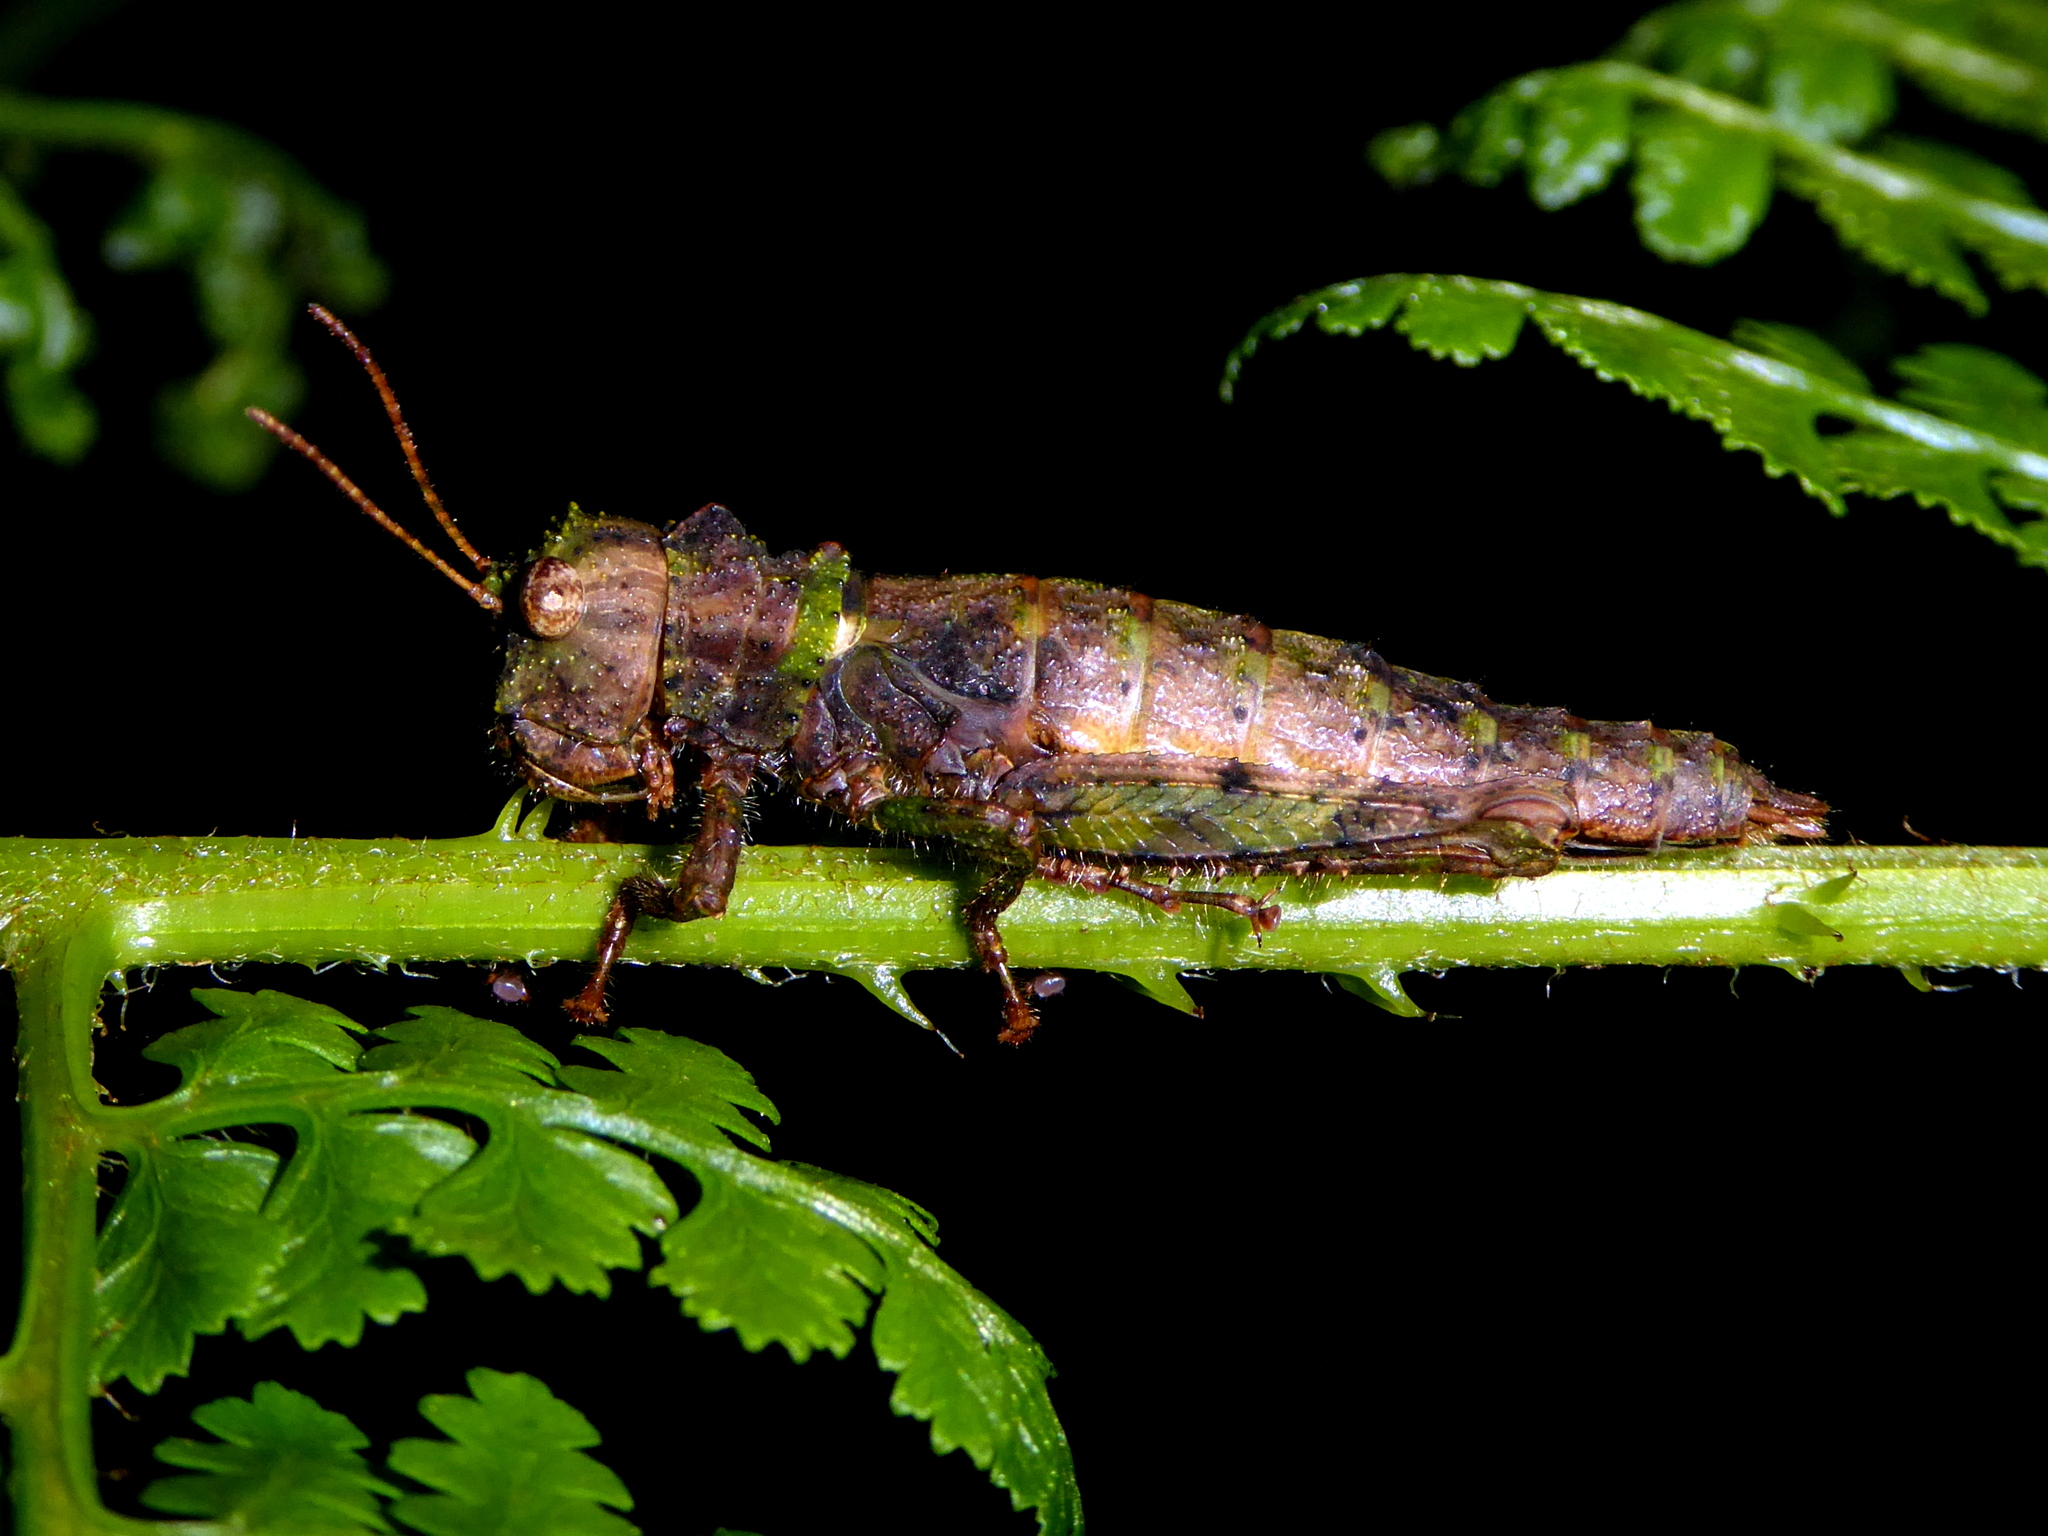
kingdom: Animalia
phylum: Arthropoda
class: Insecta
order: Orthoptera
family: Romaleidae
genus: Mayalina
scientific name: Mayalina chajulensis
